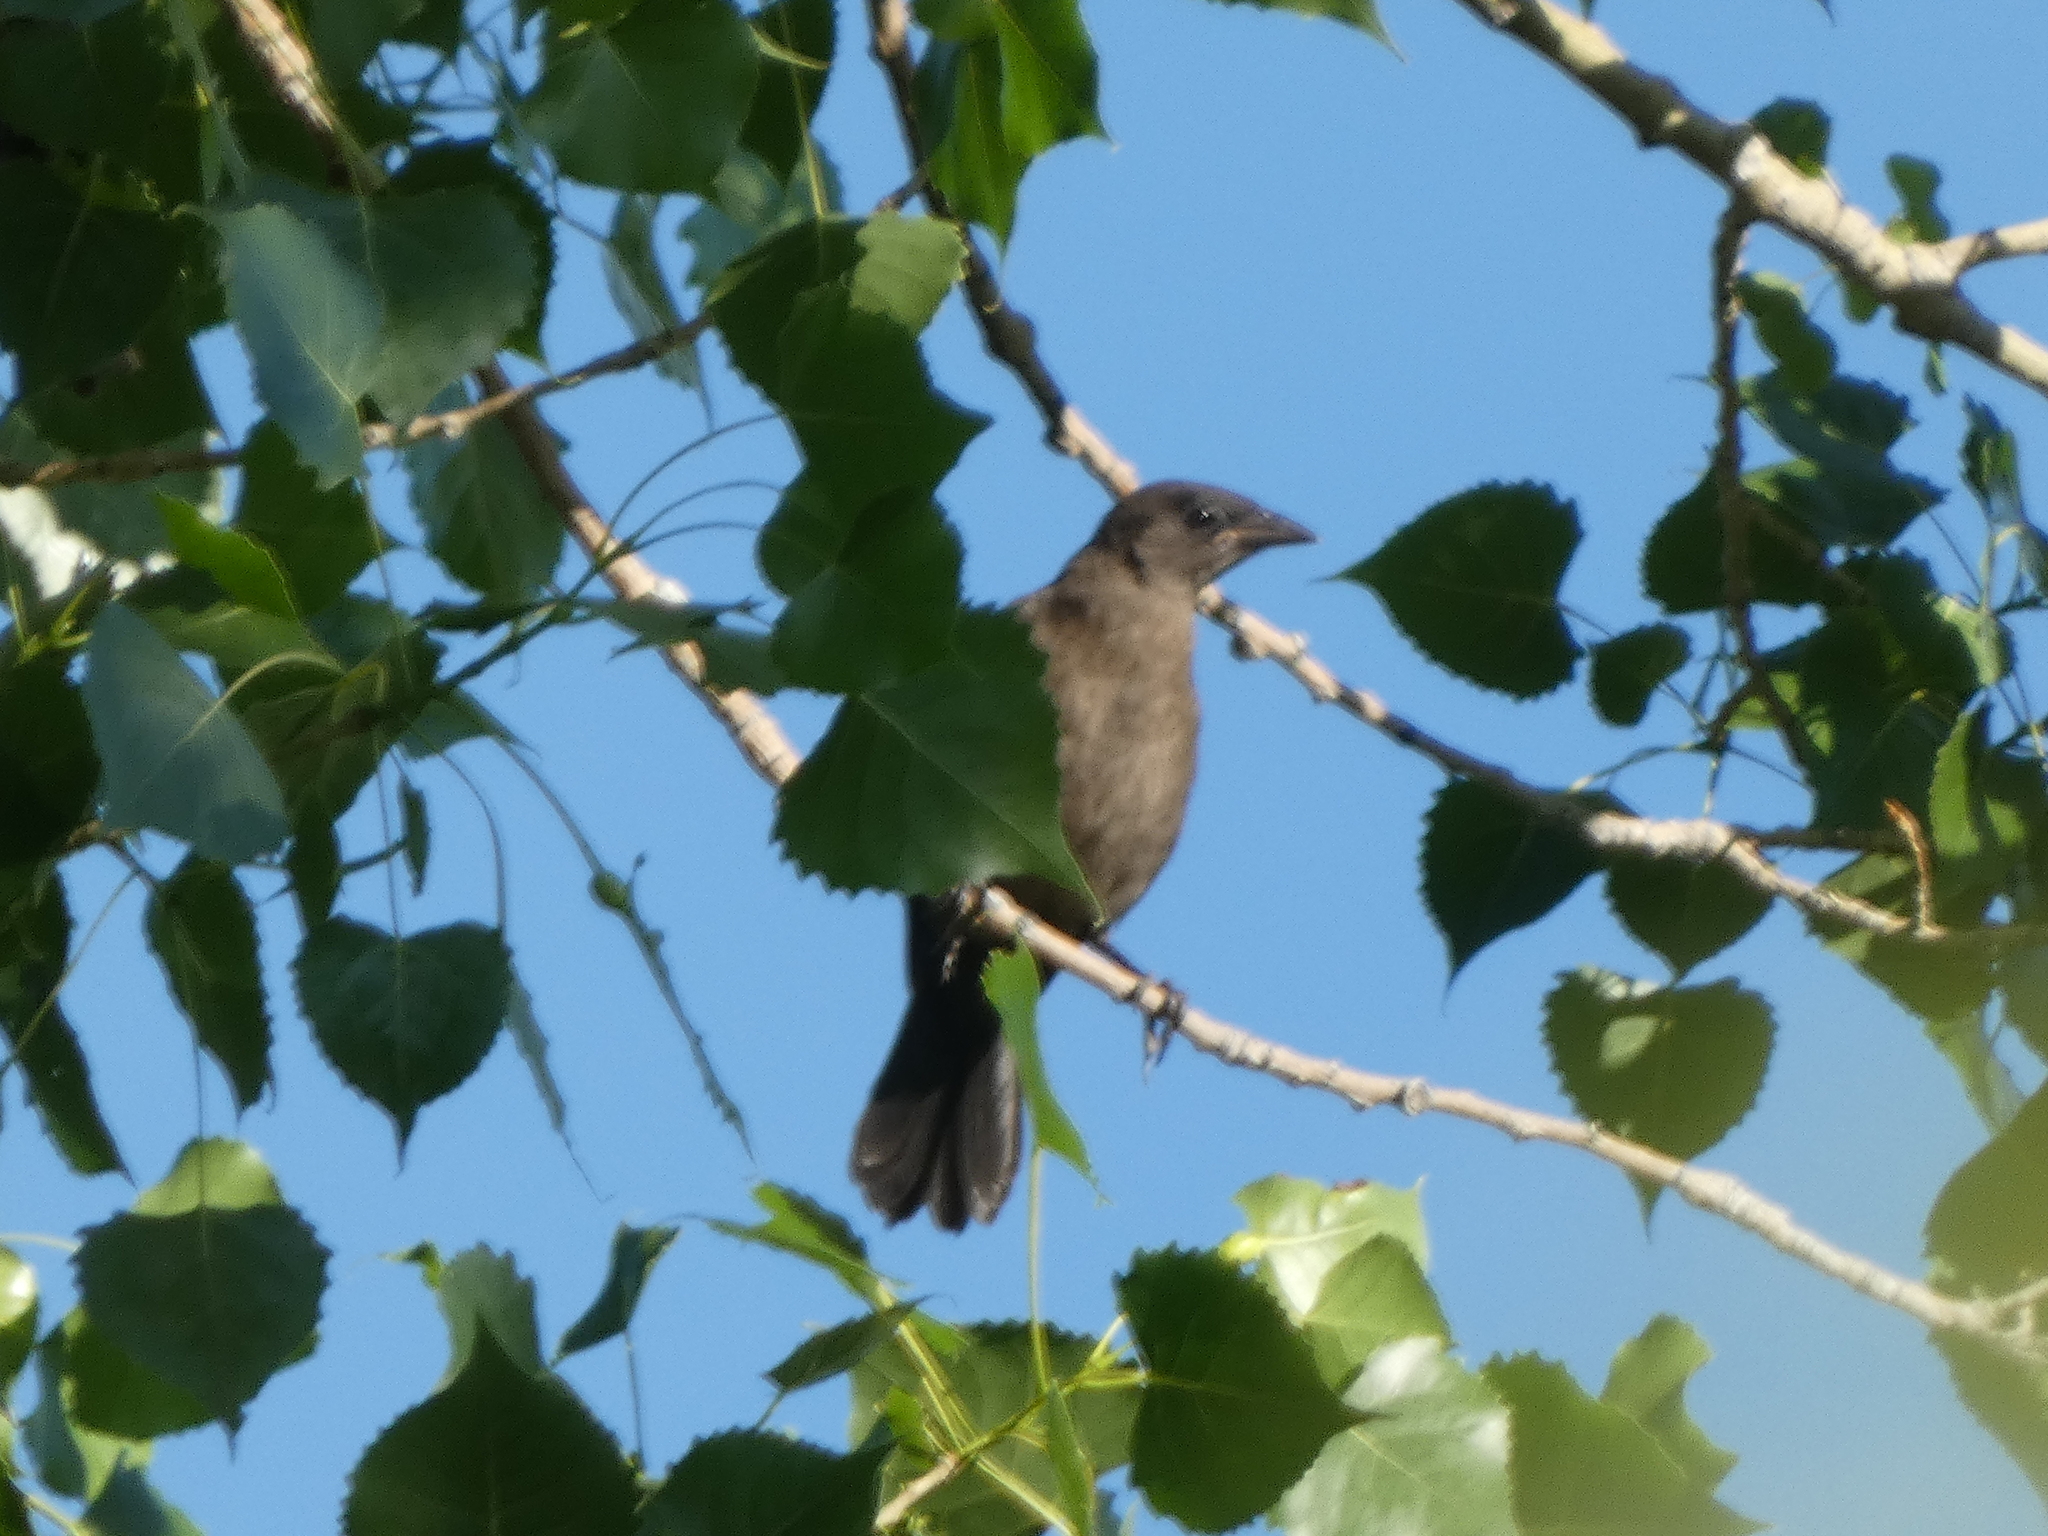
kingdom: Animalia
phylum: Chordata
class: Aves
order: Passeriformes
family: Icteridae
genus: Quiscalus
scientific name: Quiscalus quiscula
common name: Common grackle
